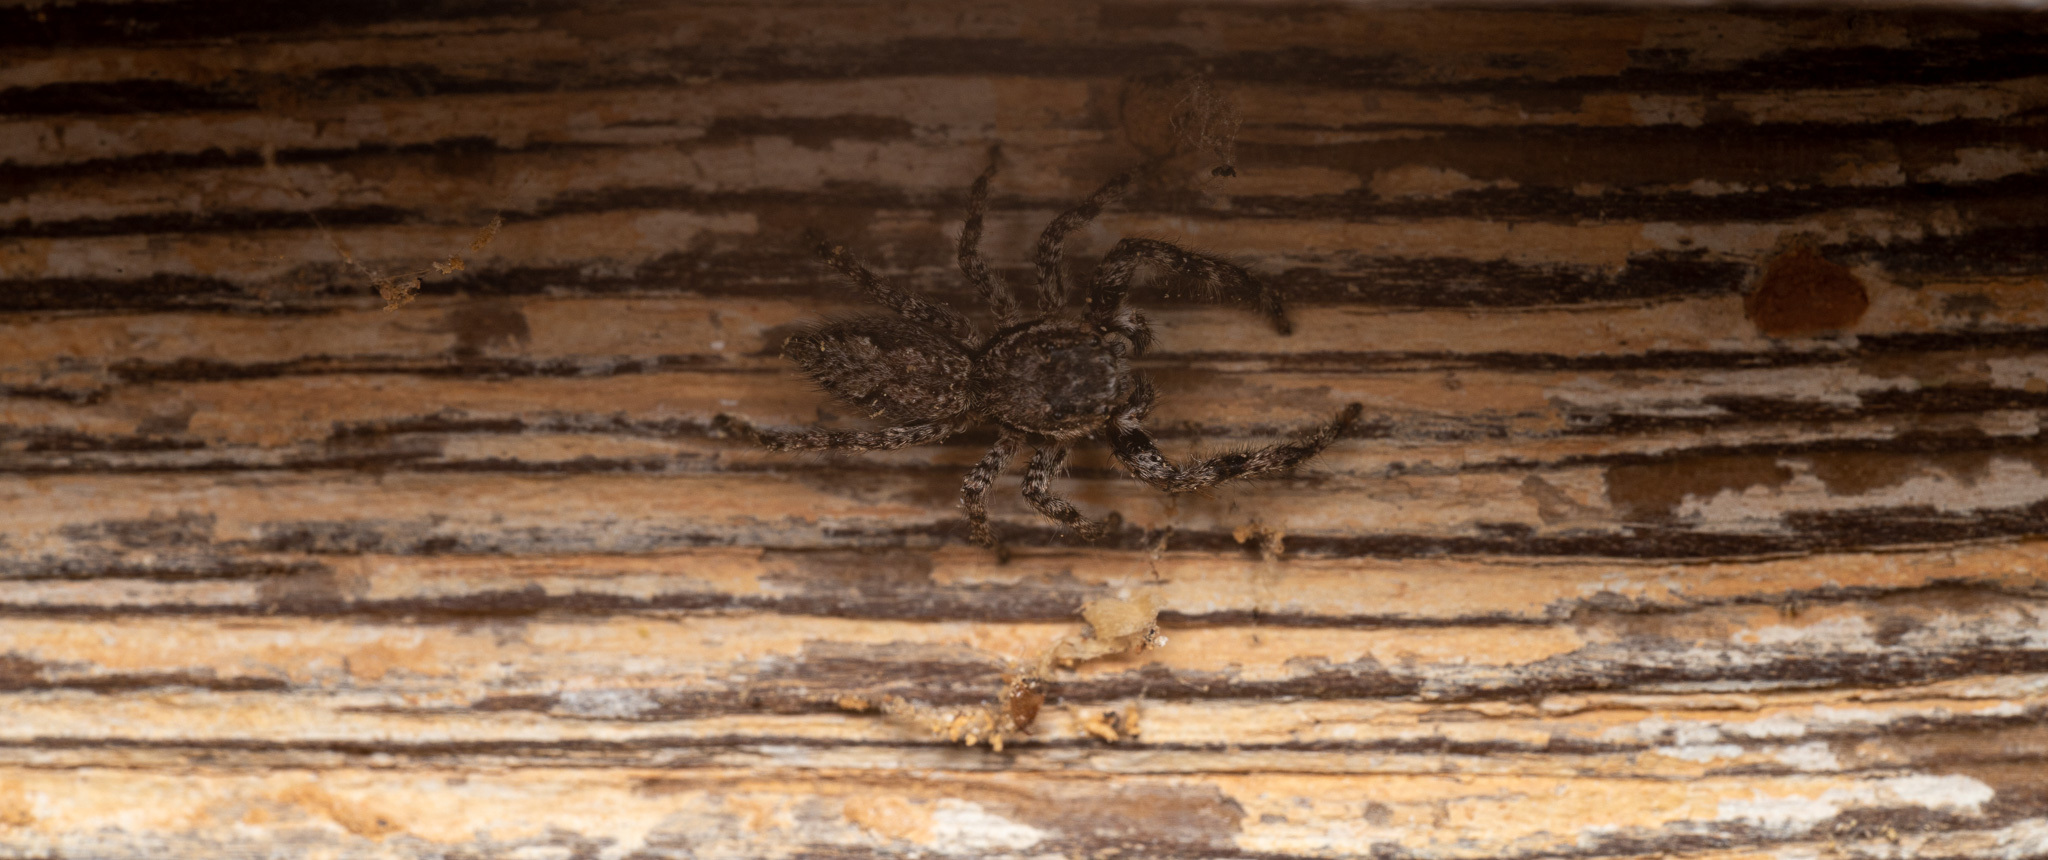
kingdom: Animalia
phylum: Arthropoda
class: Arachnida
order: Araneae
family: Salticidae
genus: Platycryptus
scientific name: Platycryptus undatus
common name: Tan jumping spider
